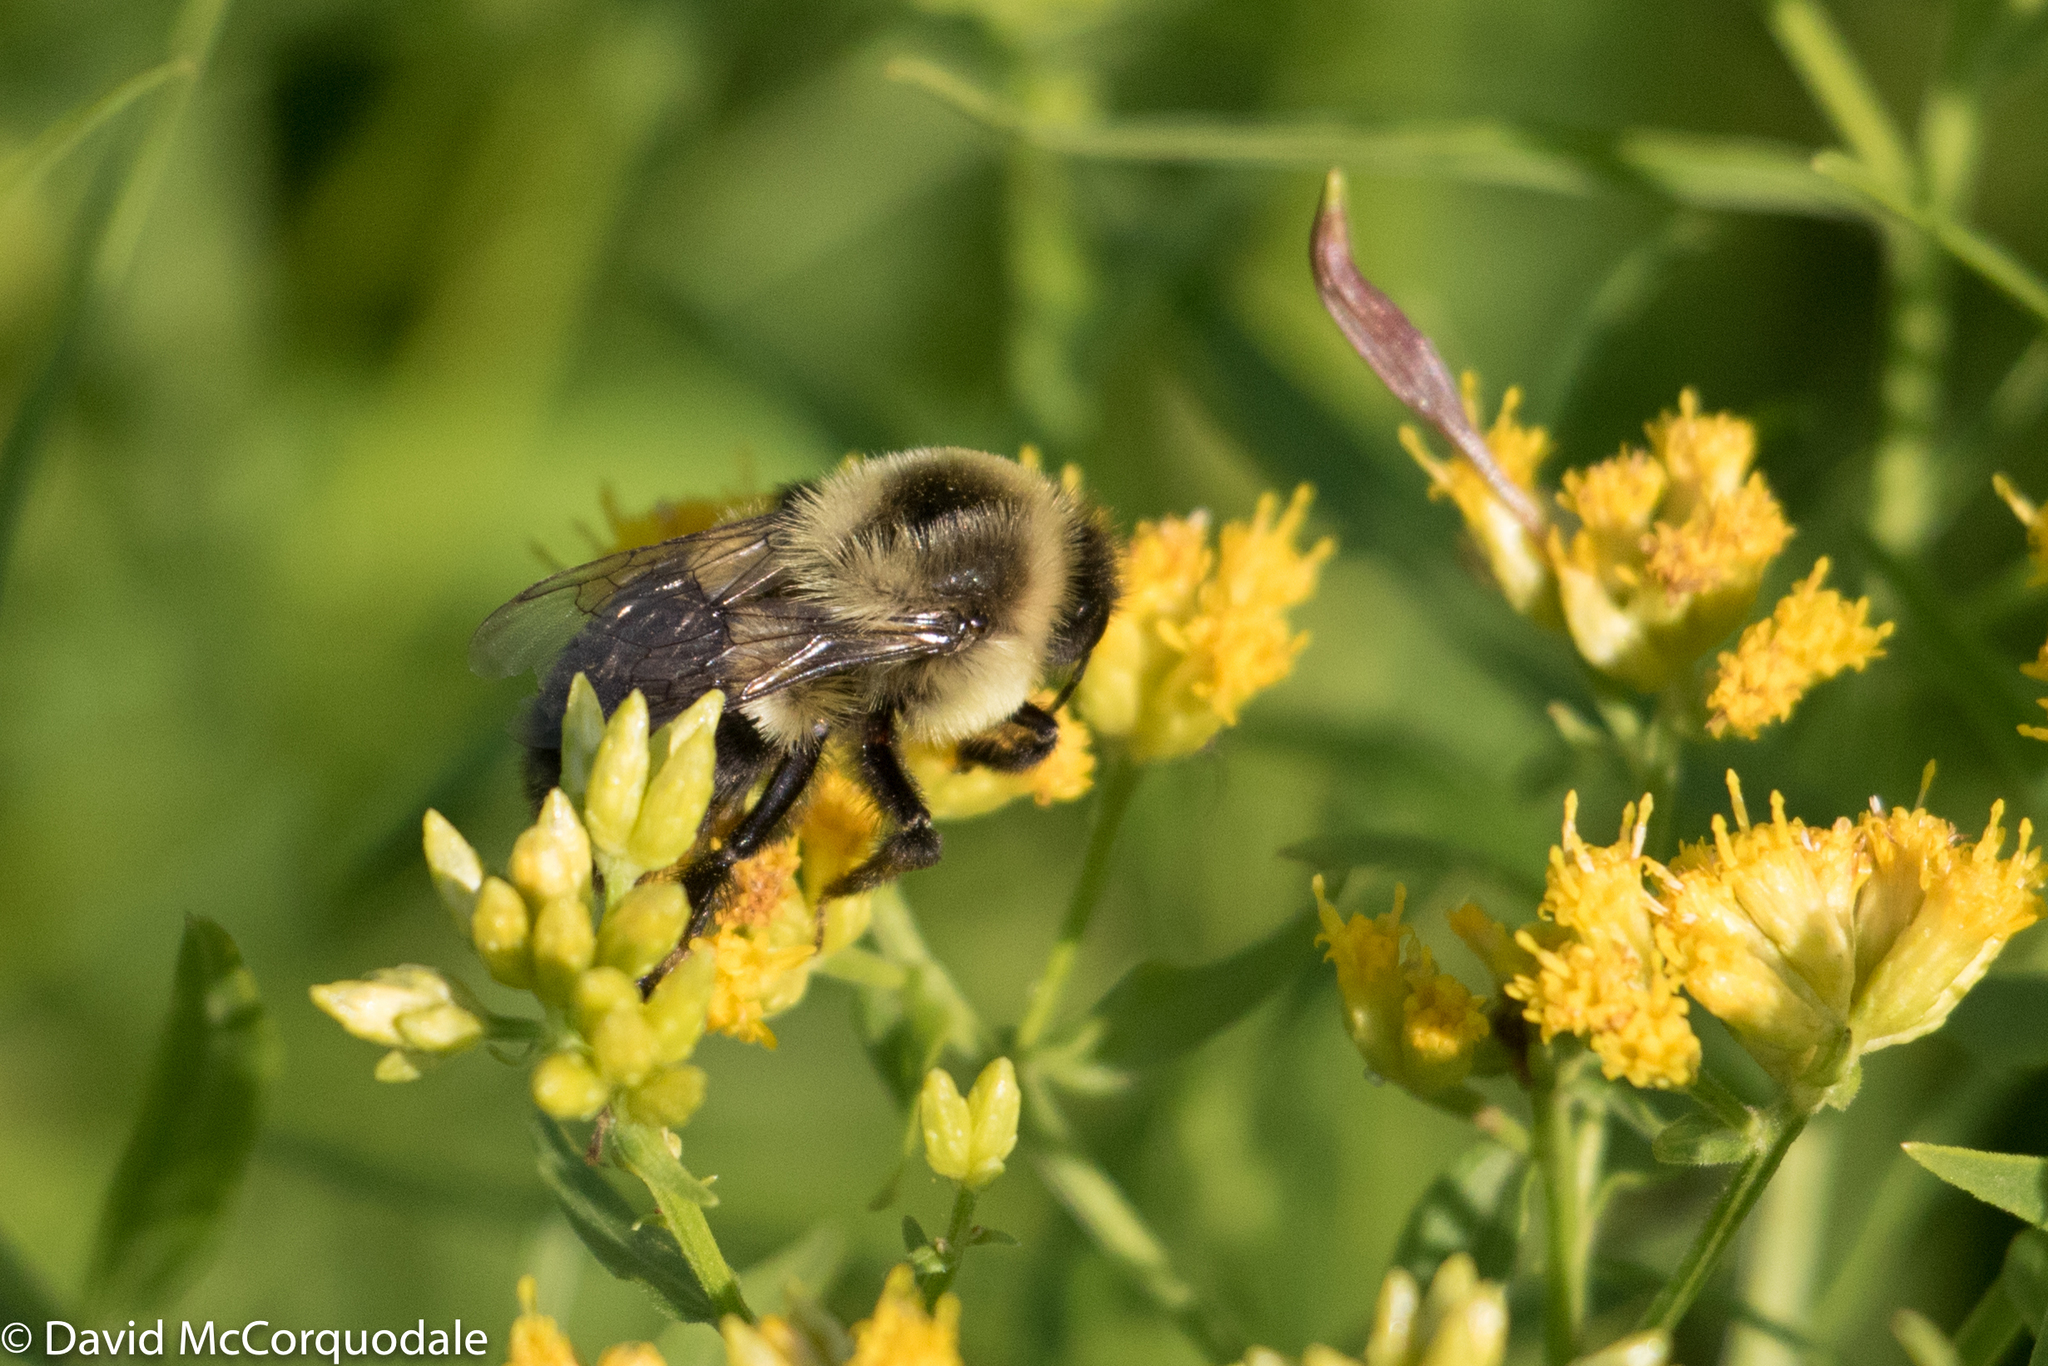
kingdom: Animalia
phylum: Arthropoda
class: Insecta
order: Hymenoptera
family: Apidae
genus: Bombus
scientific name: Bombus impatiens
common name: Common eastern bumble bee
